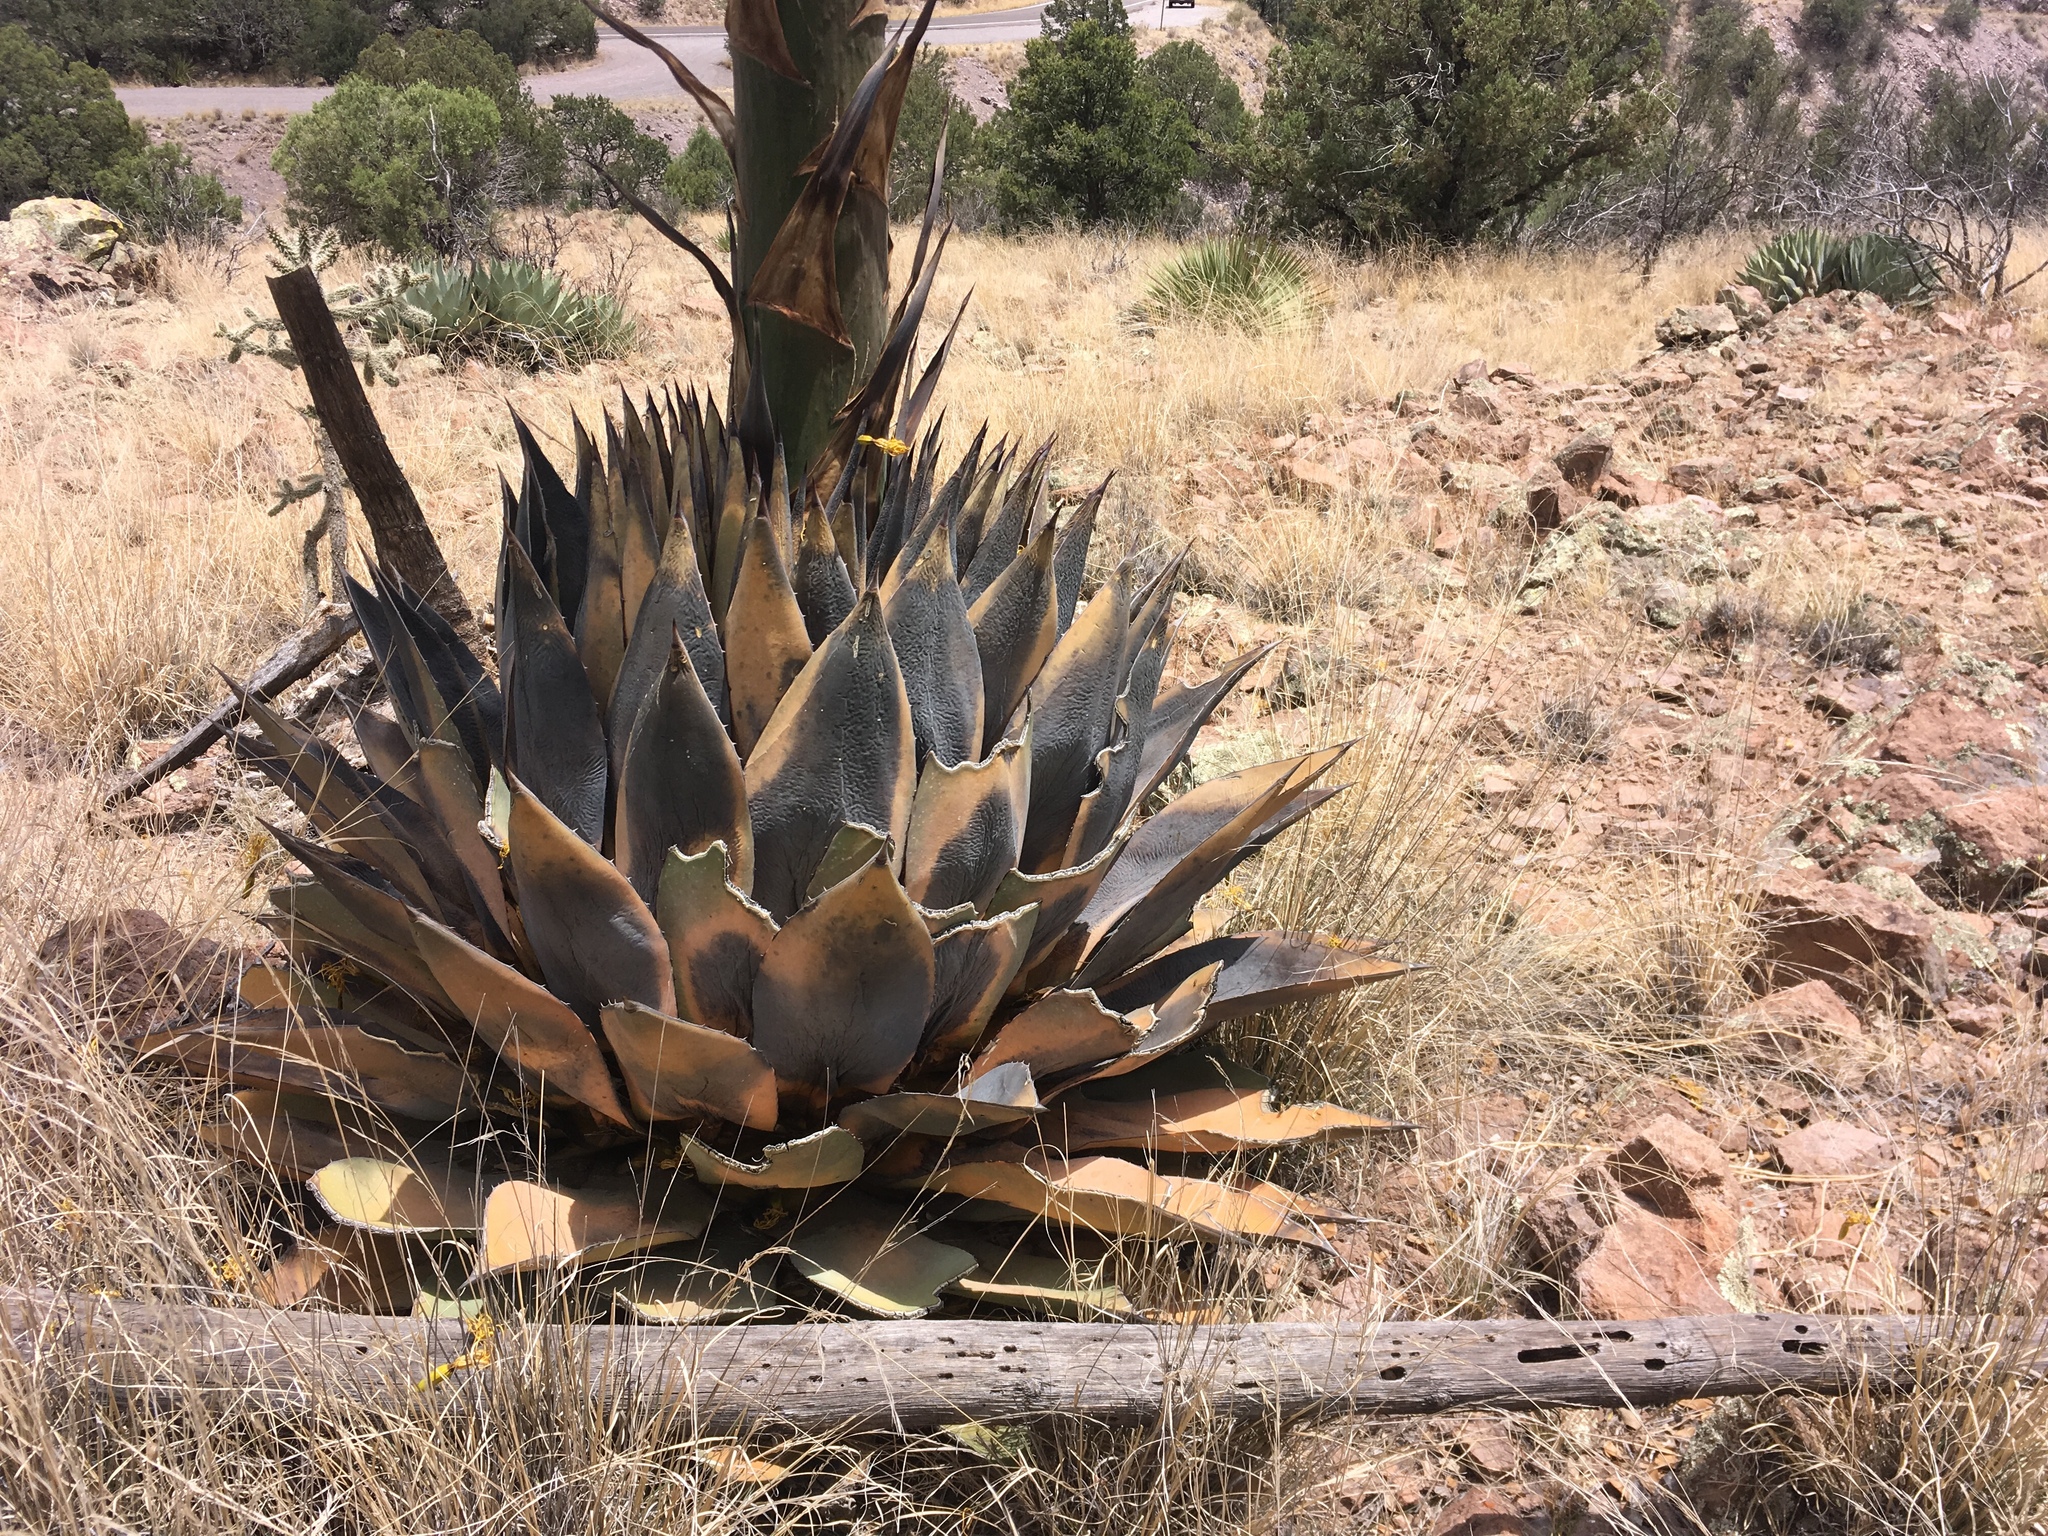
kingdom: Plantae
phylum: Tracheophyta
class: Liliopsida
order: Asparagales
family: Asparagaceae
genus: Agave
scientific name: Agave parryi
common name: Parry's agave
